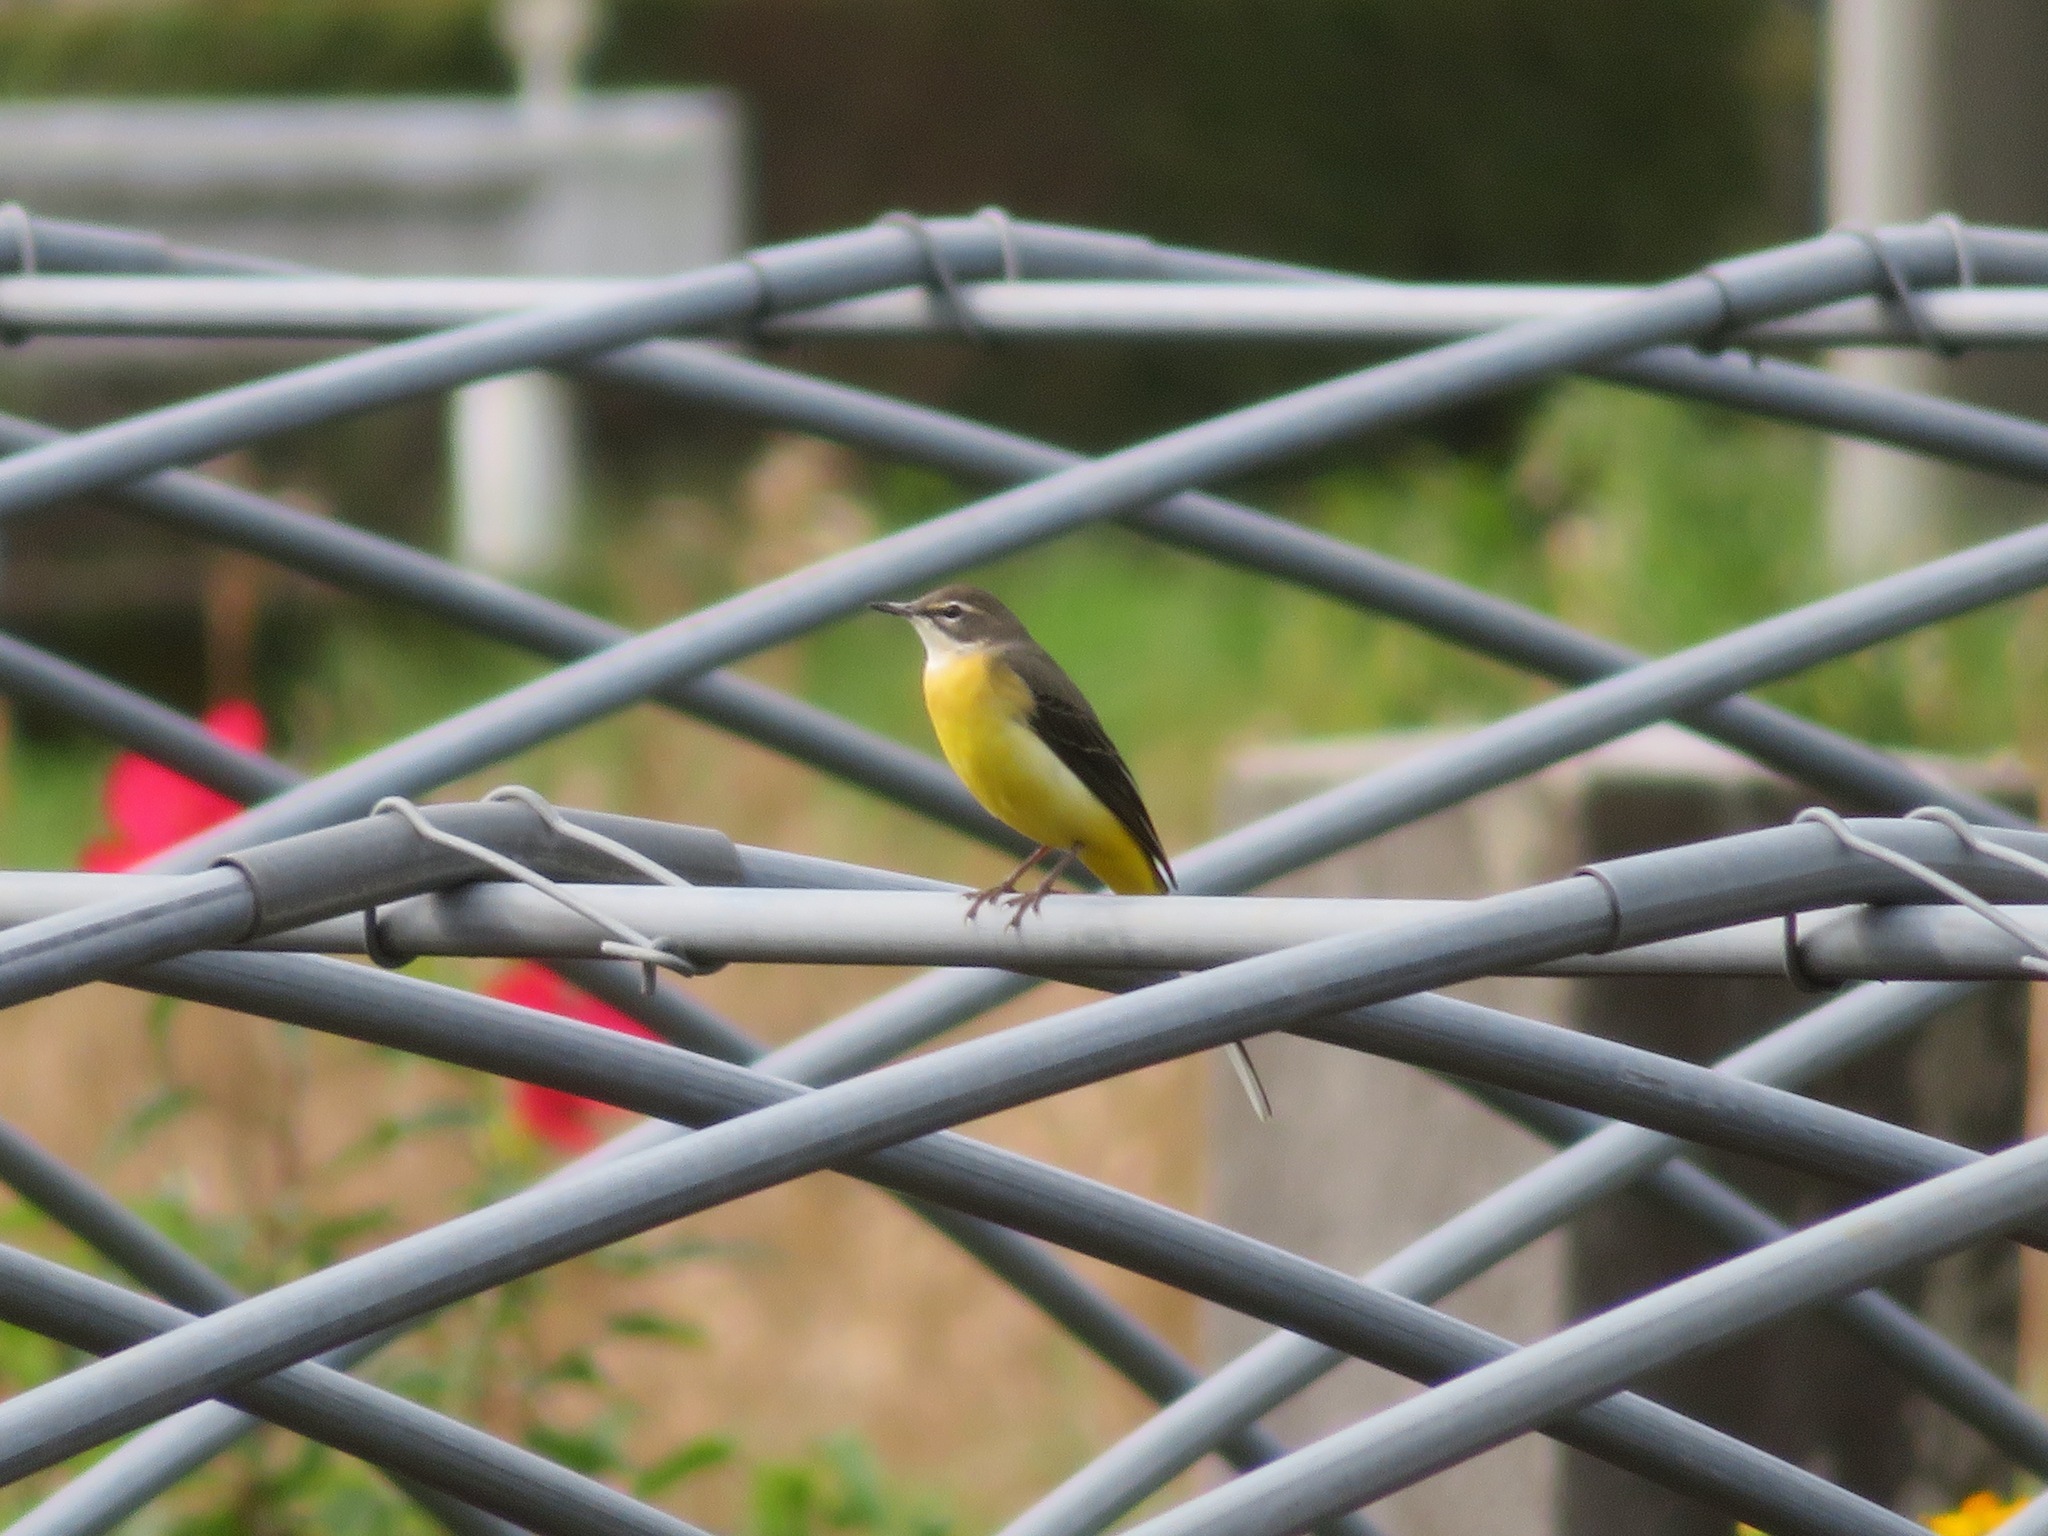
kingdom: Animalia
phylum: Chordata
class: Aves
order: Passeriformes
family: Motacillidae
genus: Motacilla
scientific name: Motacilla cinerea
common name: Grey wagtail
